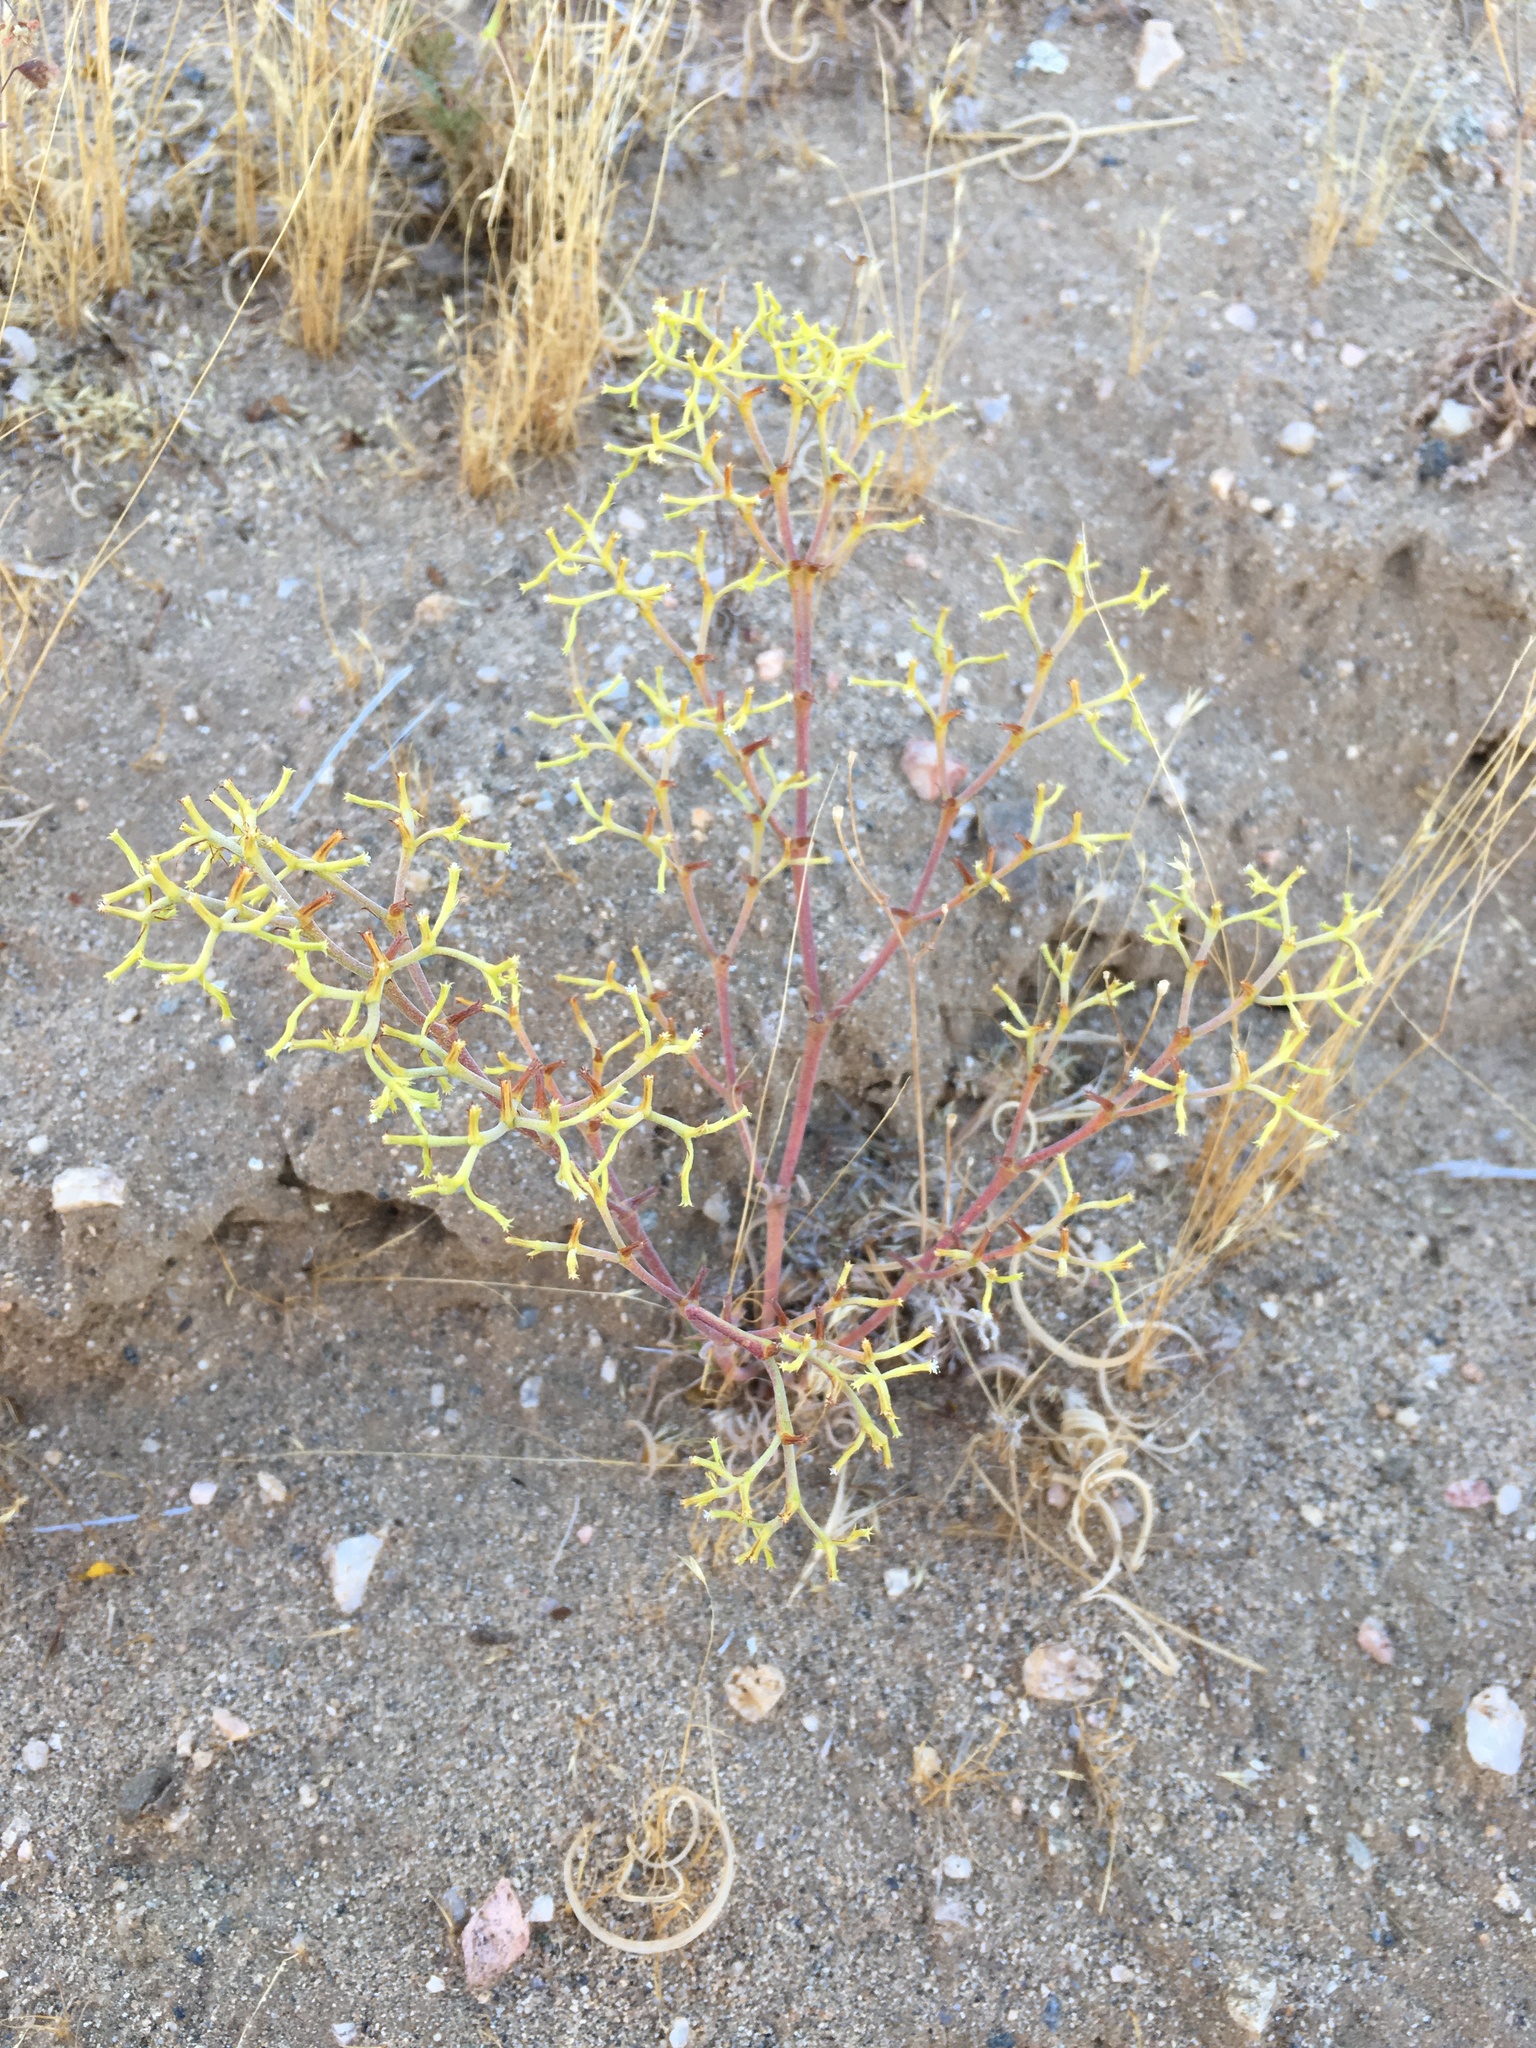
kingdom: Plantae
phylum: Tracheophyta
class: Magnoliopsida
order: Caryophyllales
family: Polygonaceae
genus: Chorizanthe
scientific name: Chorizanthe brevicornu
